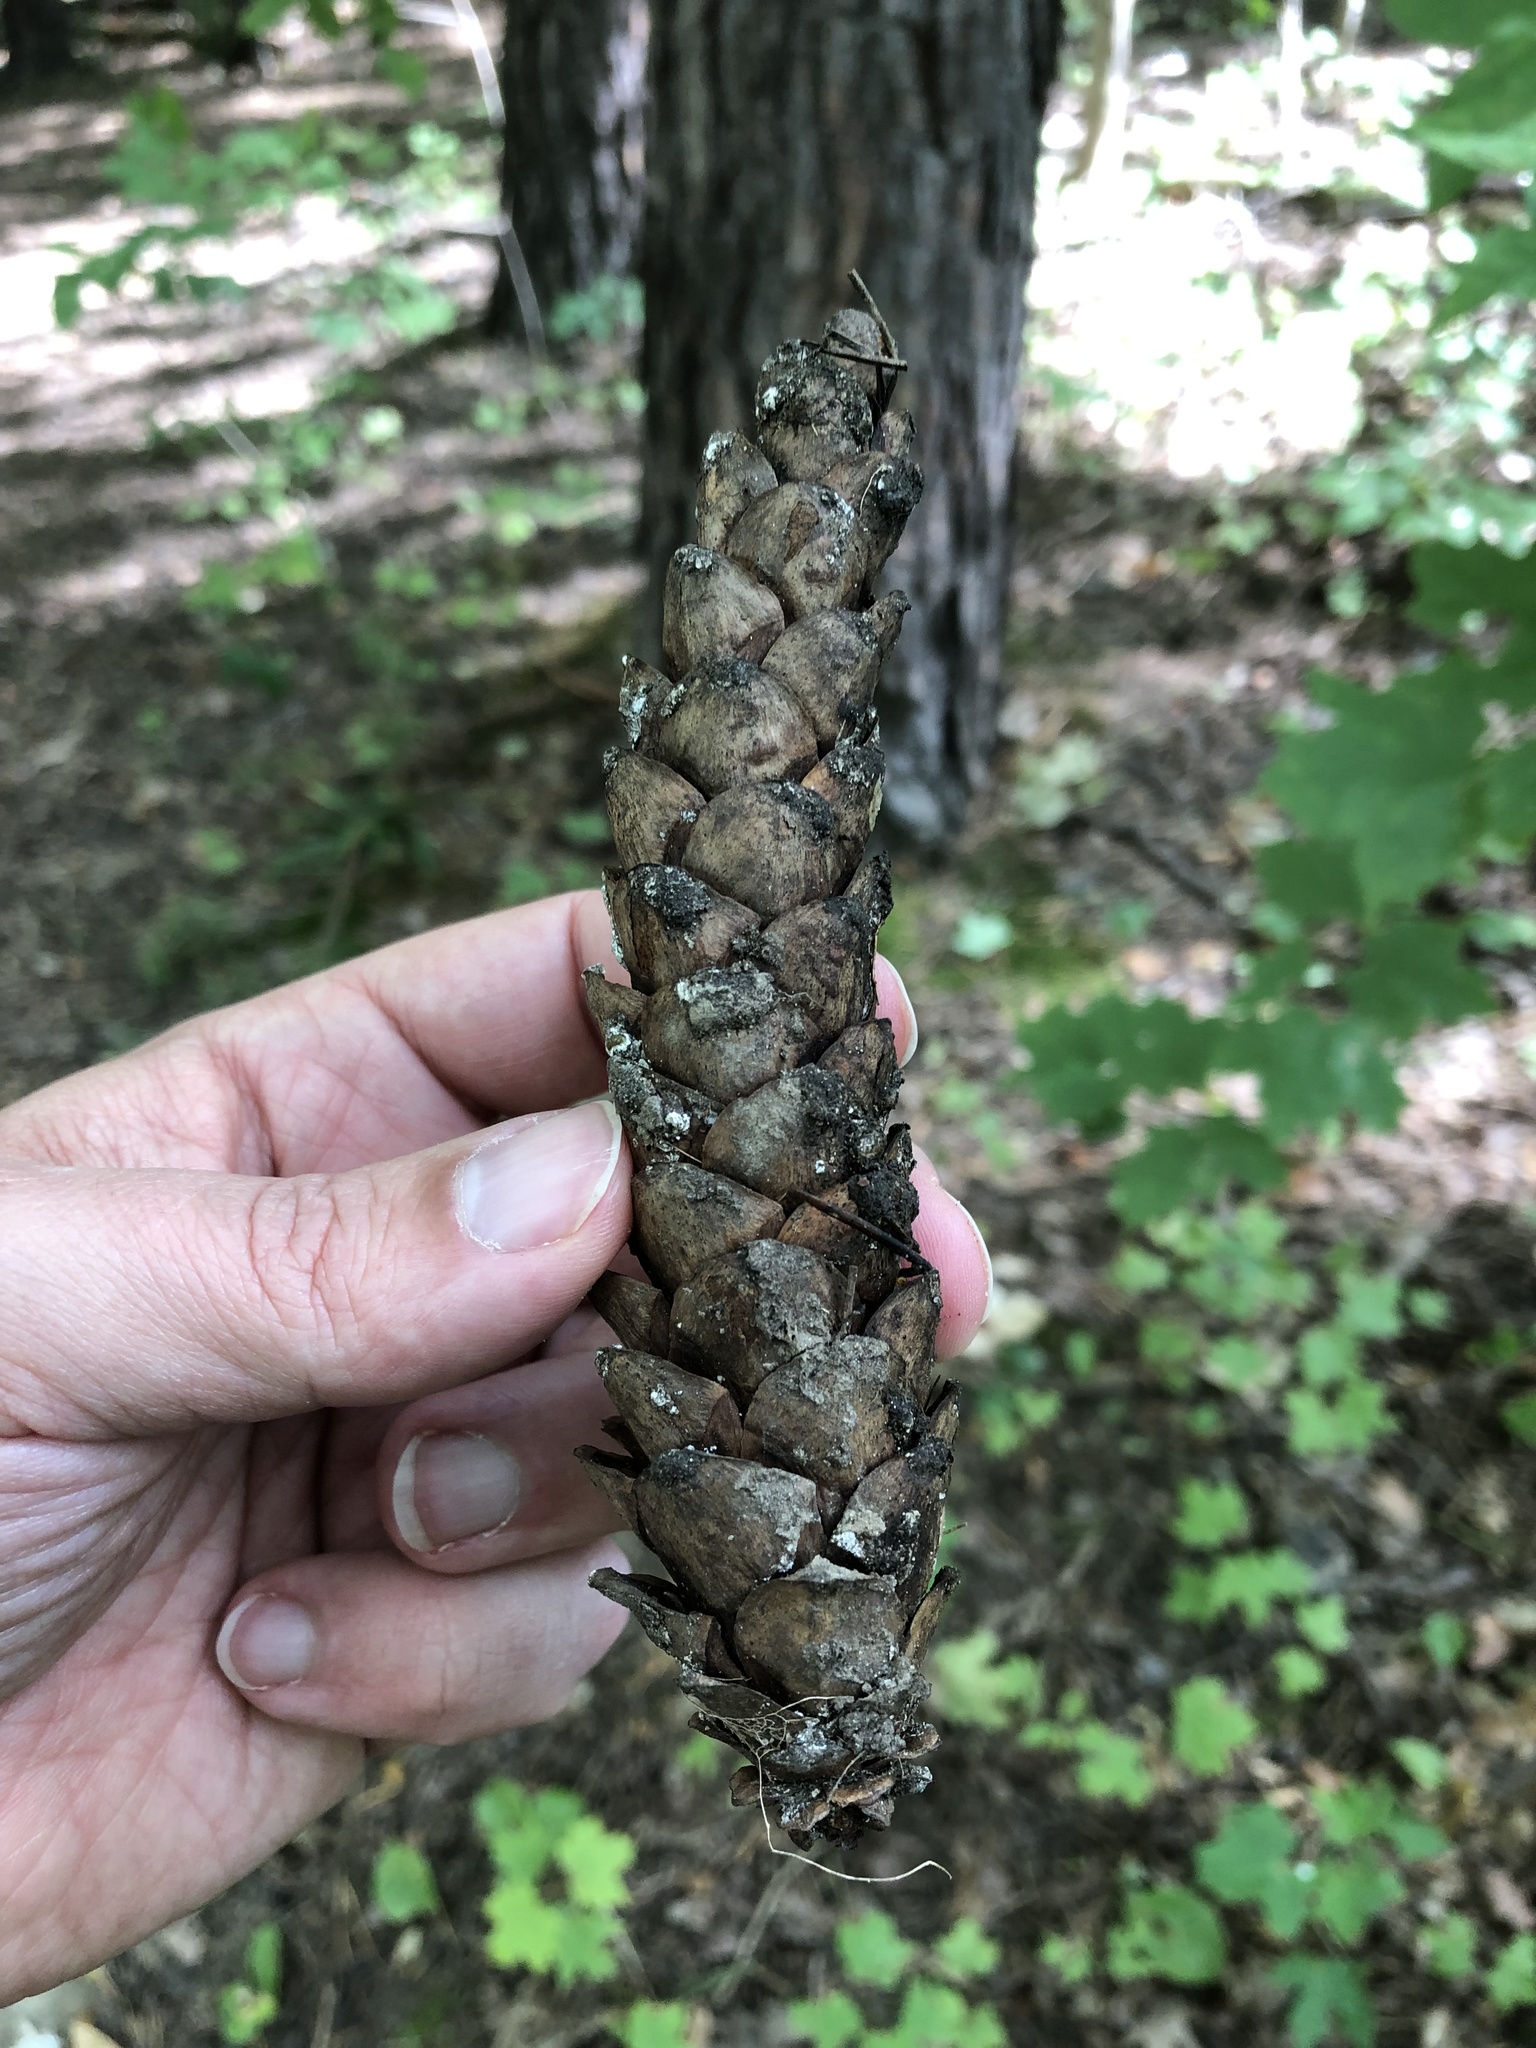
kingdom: Plantae
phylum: Tracheophyta
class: Pinopsida
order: Pinales
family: Pinaceae
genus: Pinus
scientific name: Pinus strobus
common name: Weymouth pine
